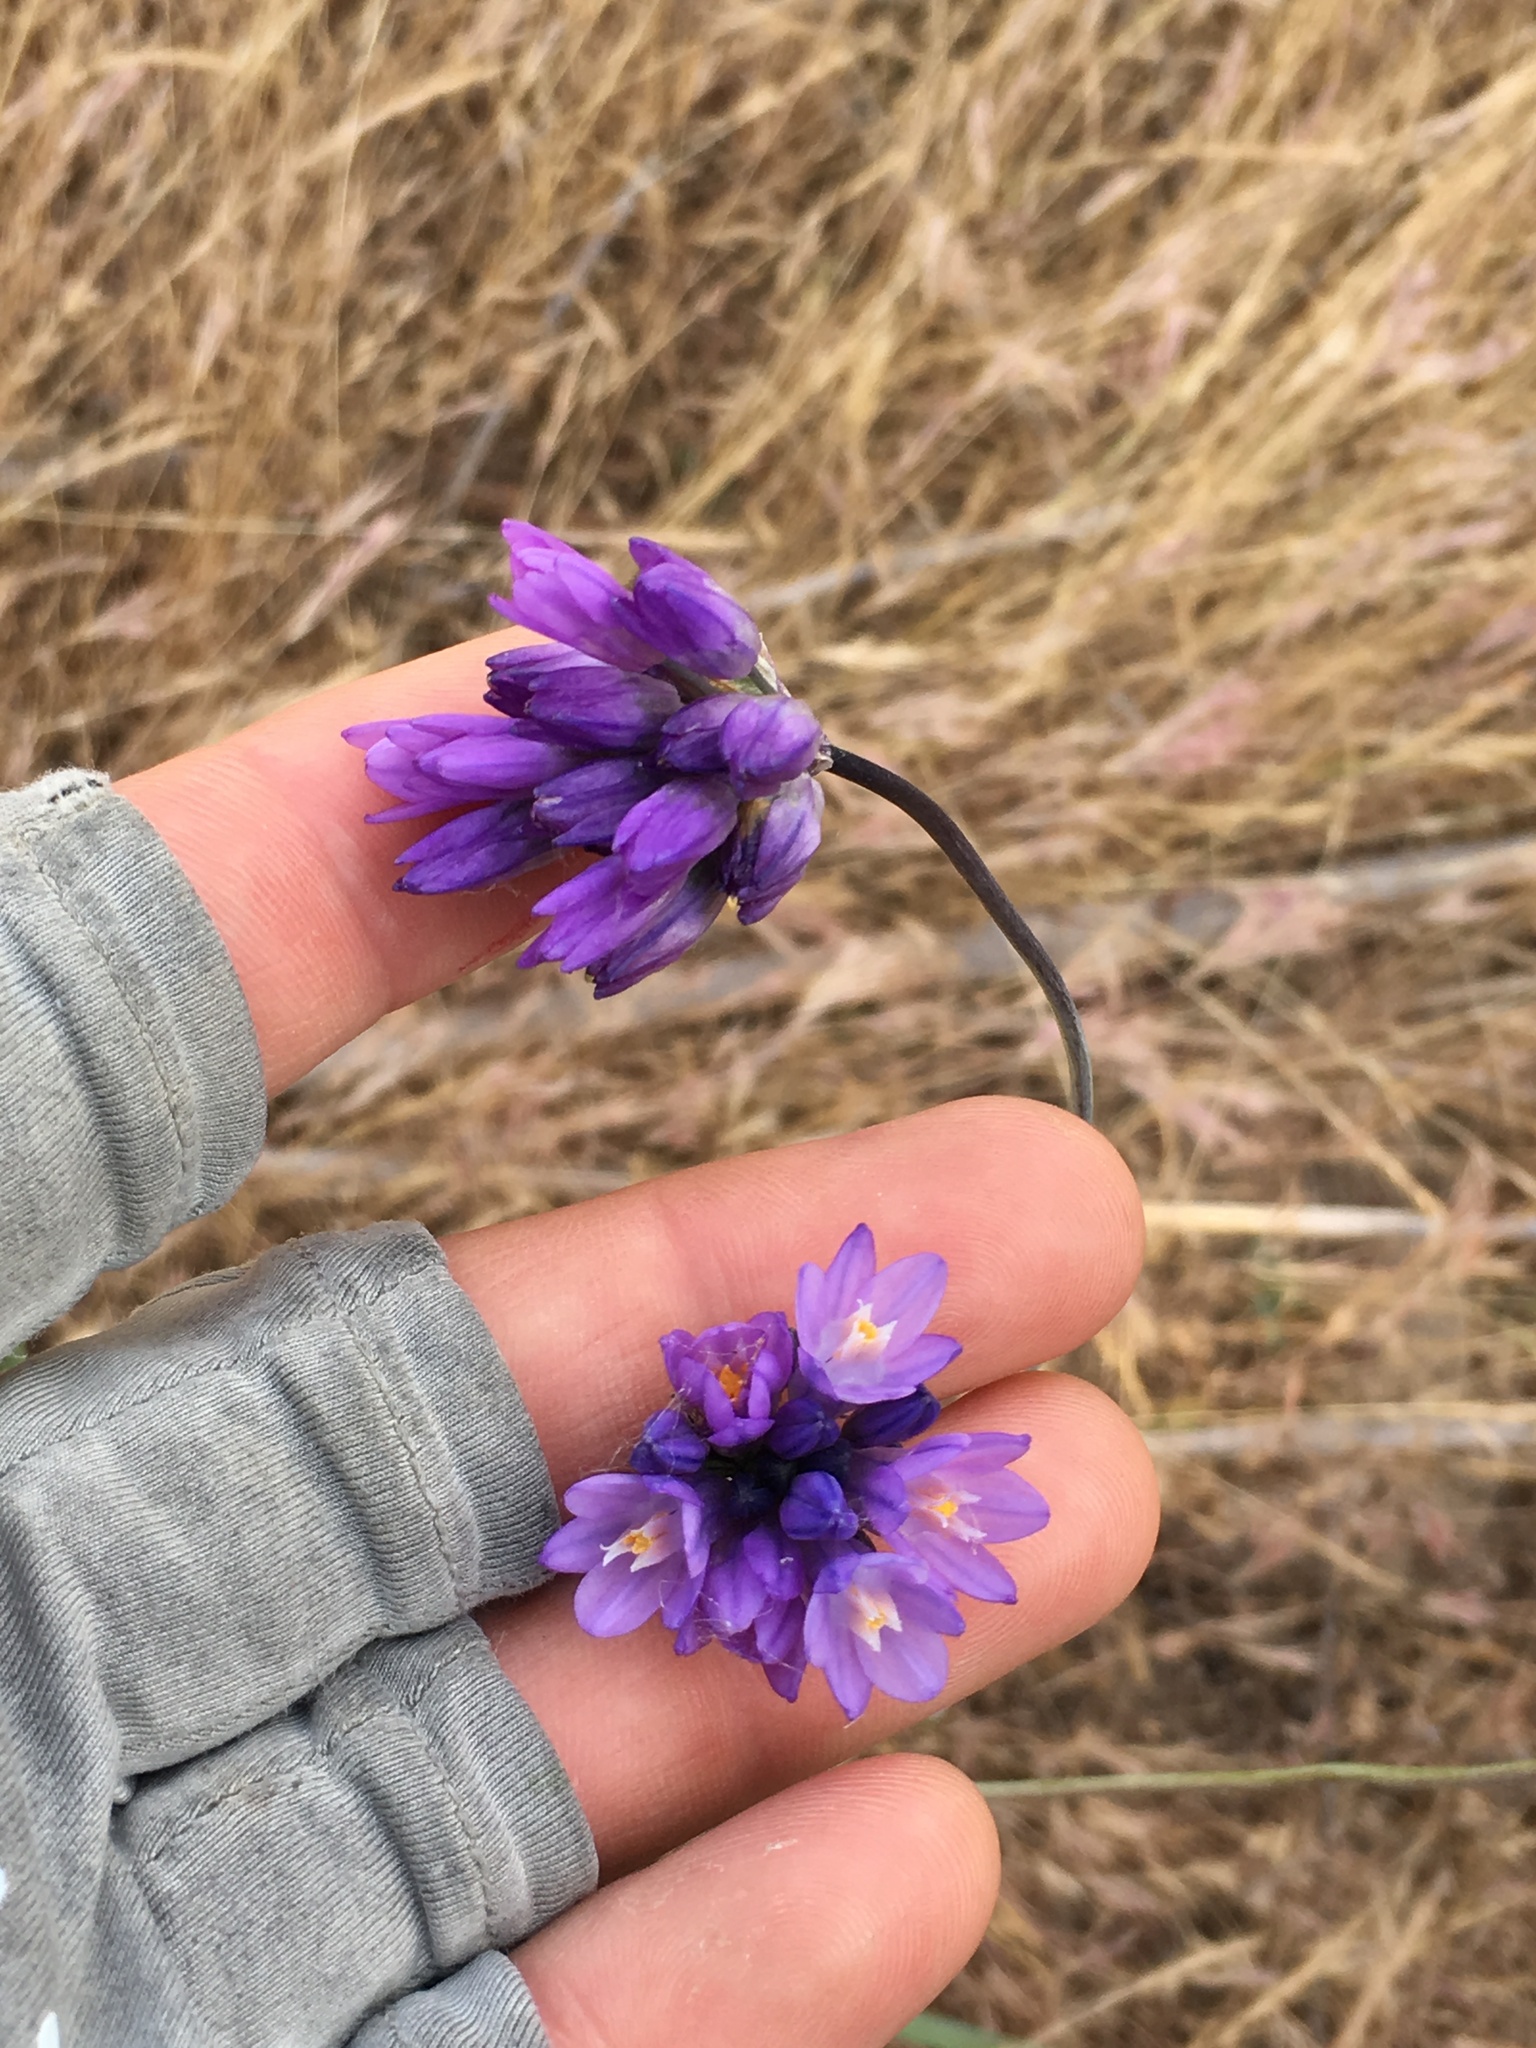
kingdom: Plantae
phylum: Tracheophyta
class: Liliopsida
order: Asparagales
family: Asparagaceae
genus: Dipterostemon
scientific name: Dipterostemon capitatus
